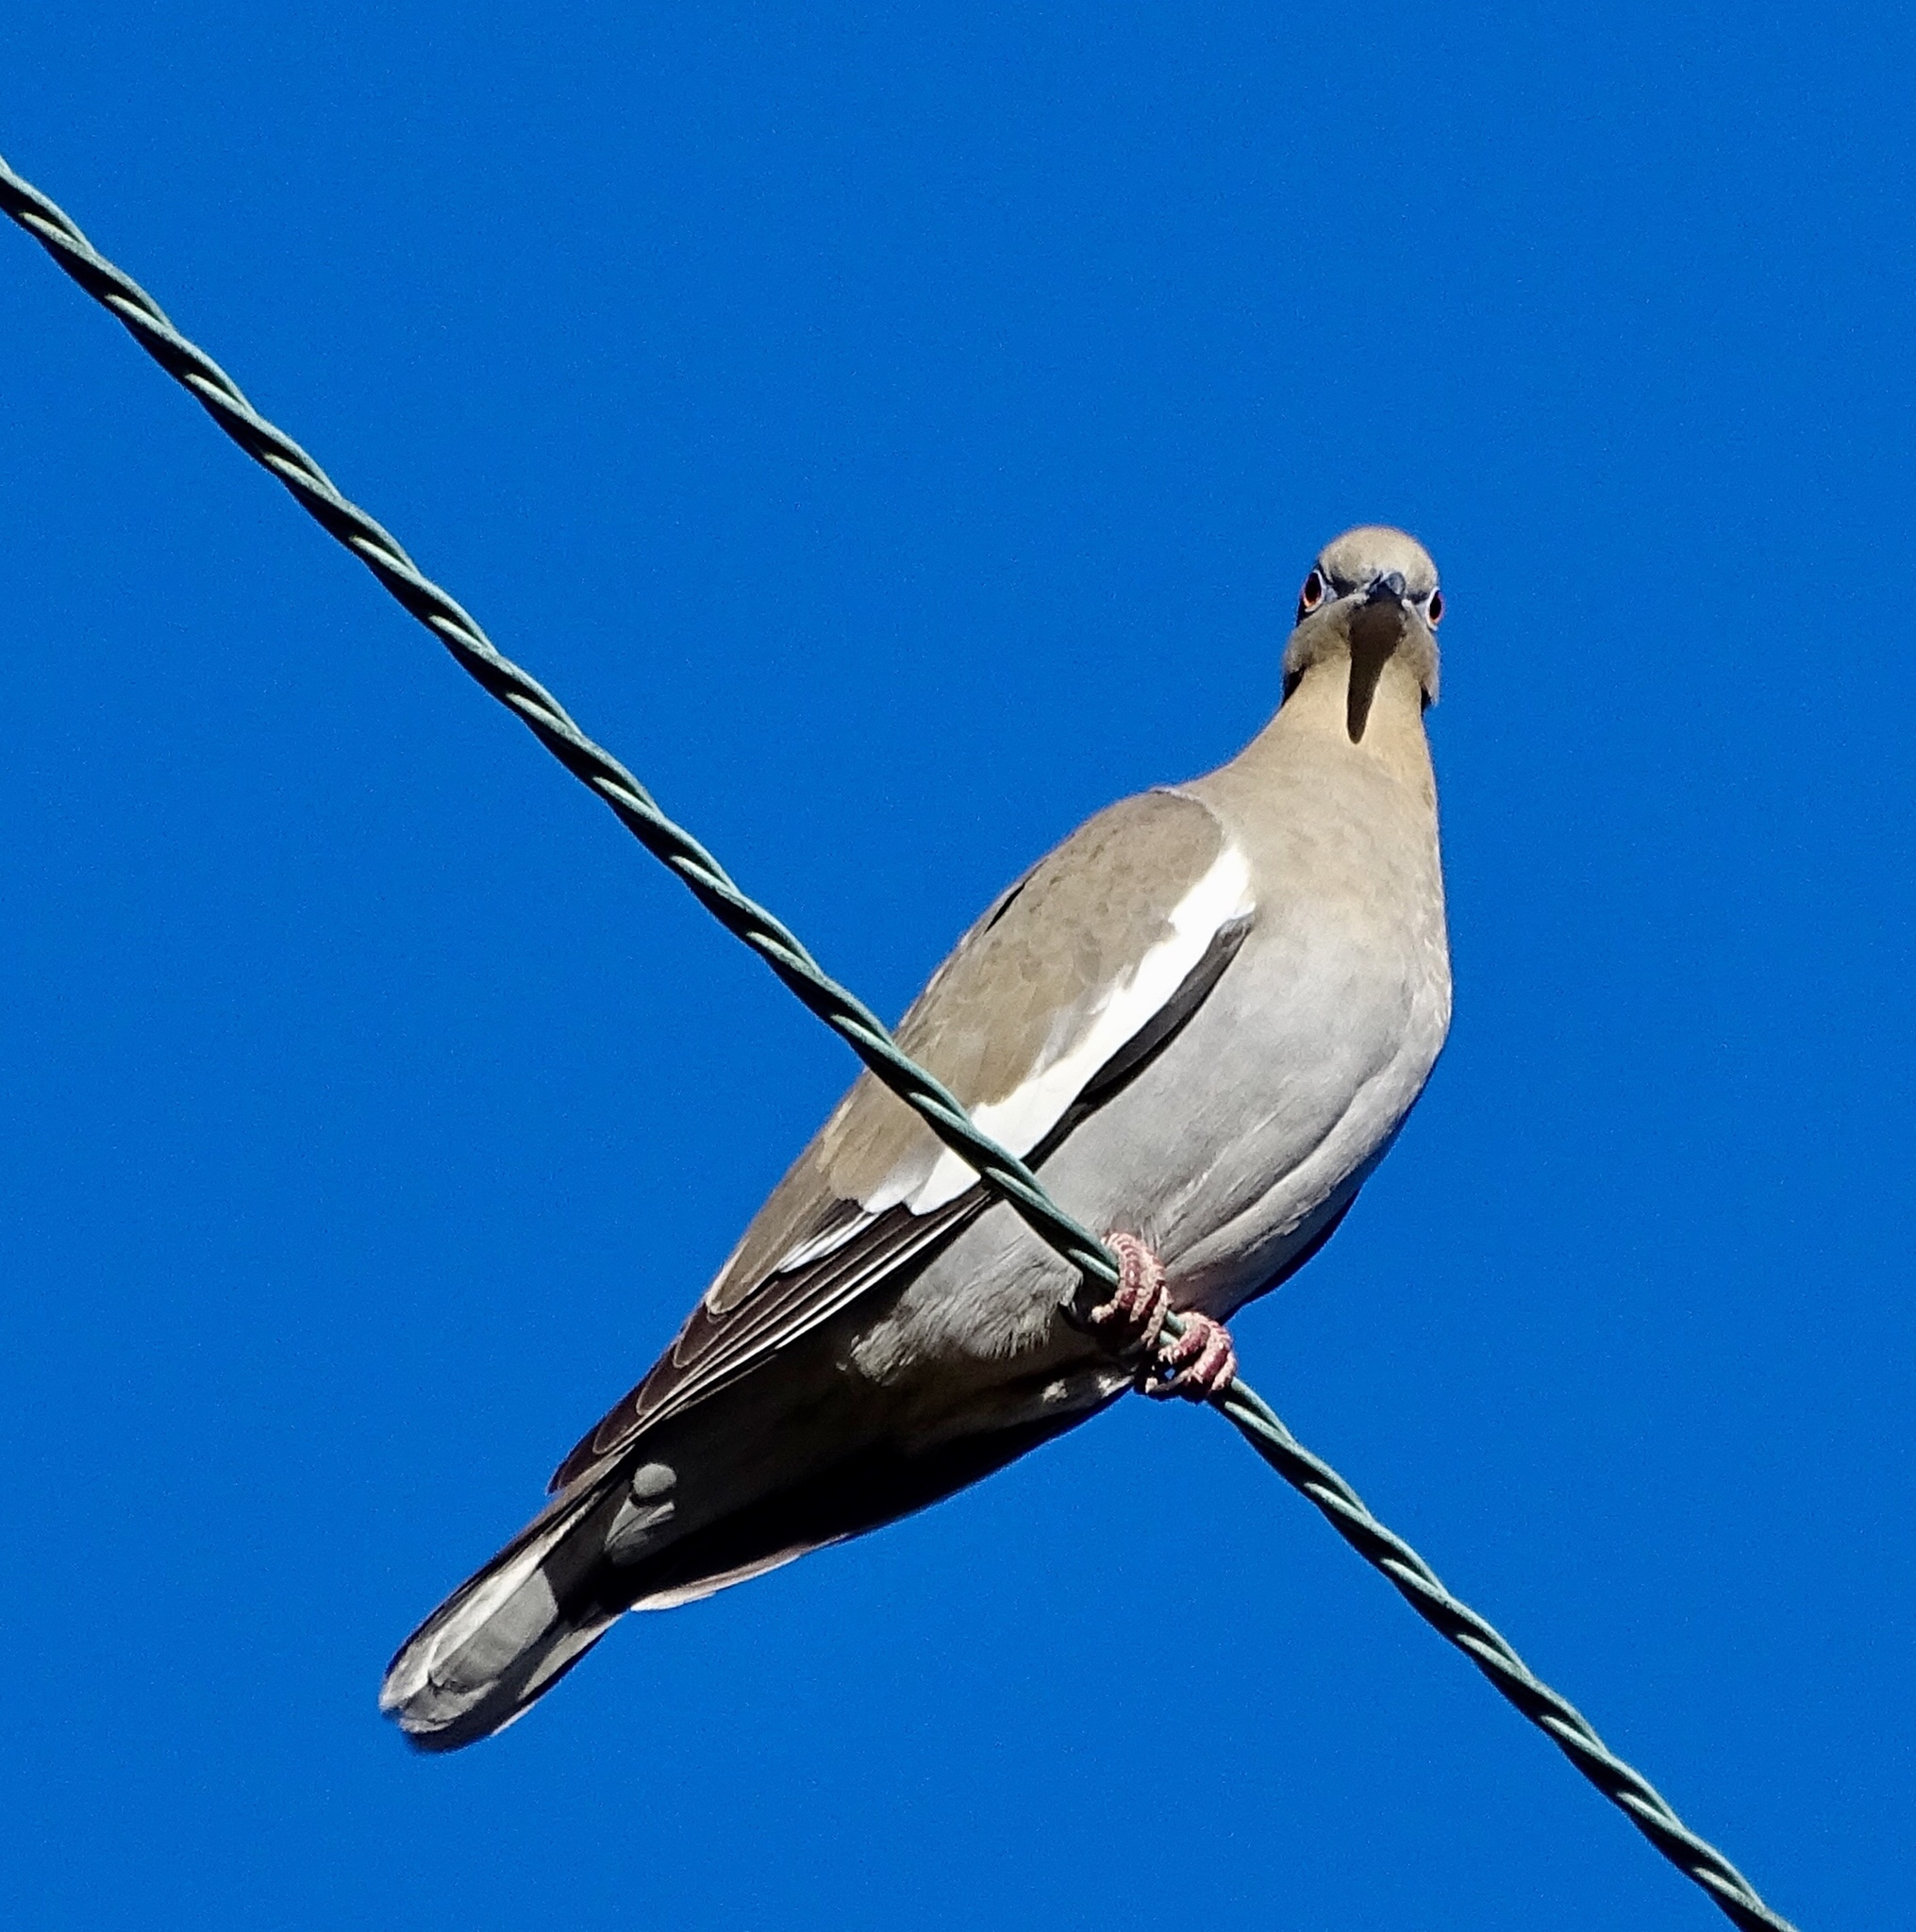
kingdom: Animalia
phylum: Chordata
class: Aves
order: Columbiformes
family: Columbidae
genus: Zenaida
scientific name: Zenaida asiatica
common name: White-winged dove
